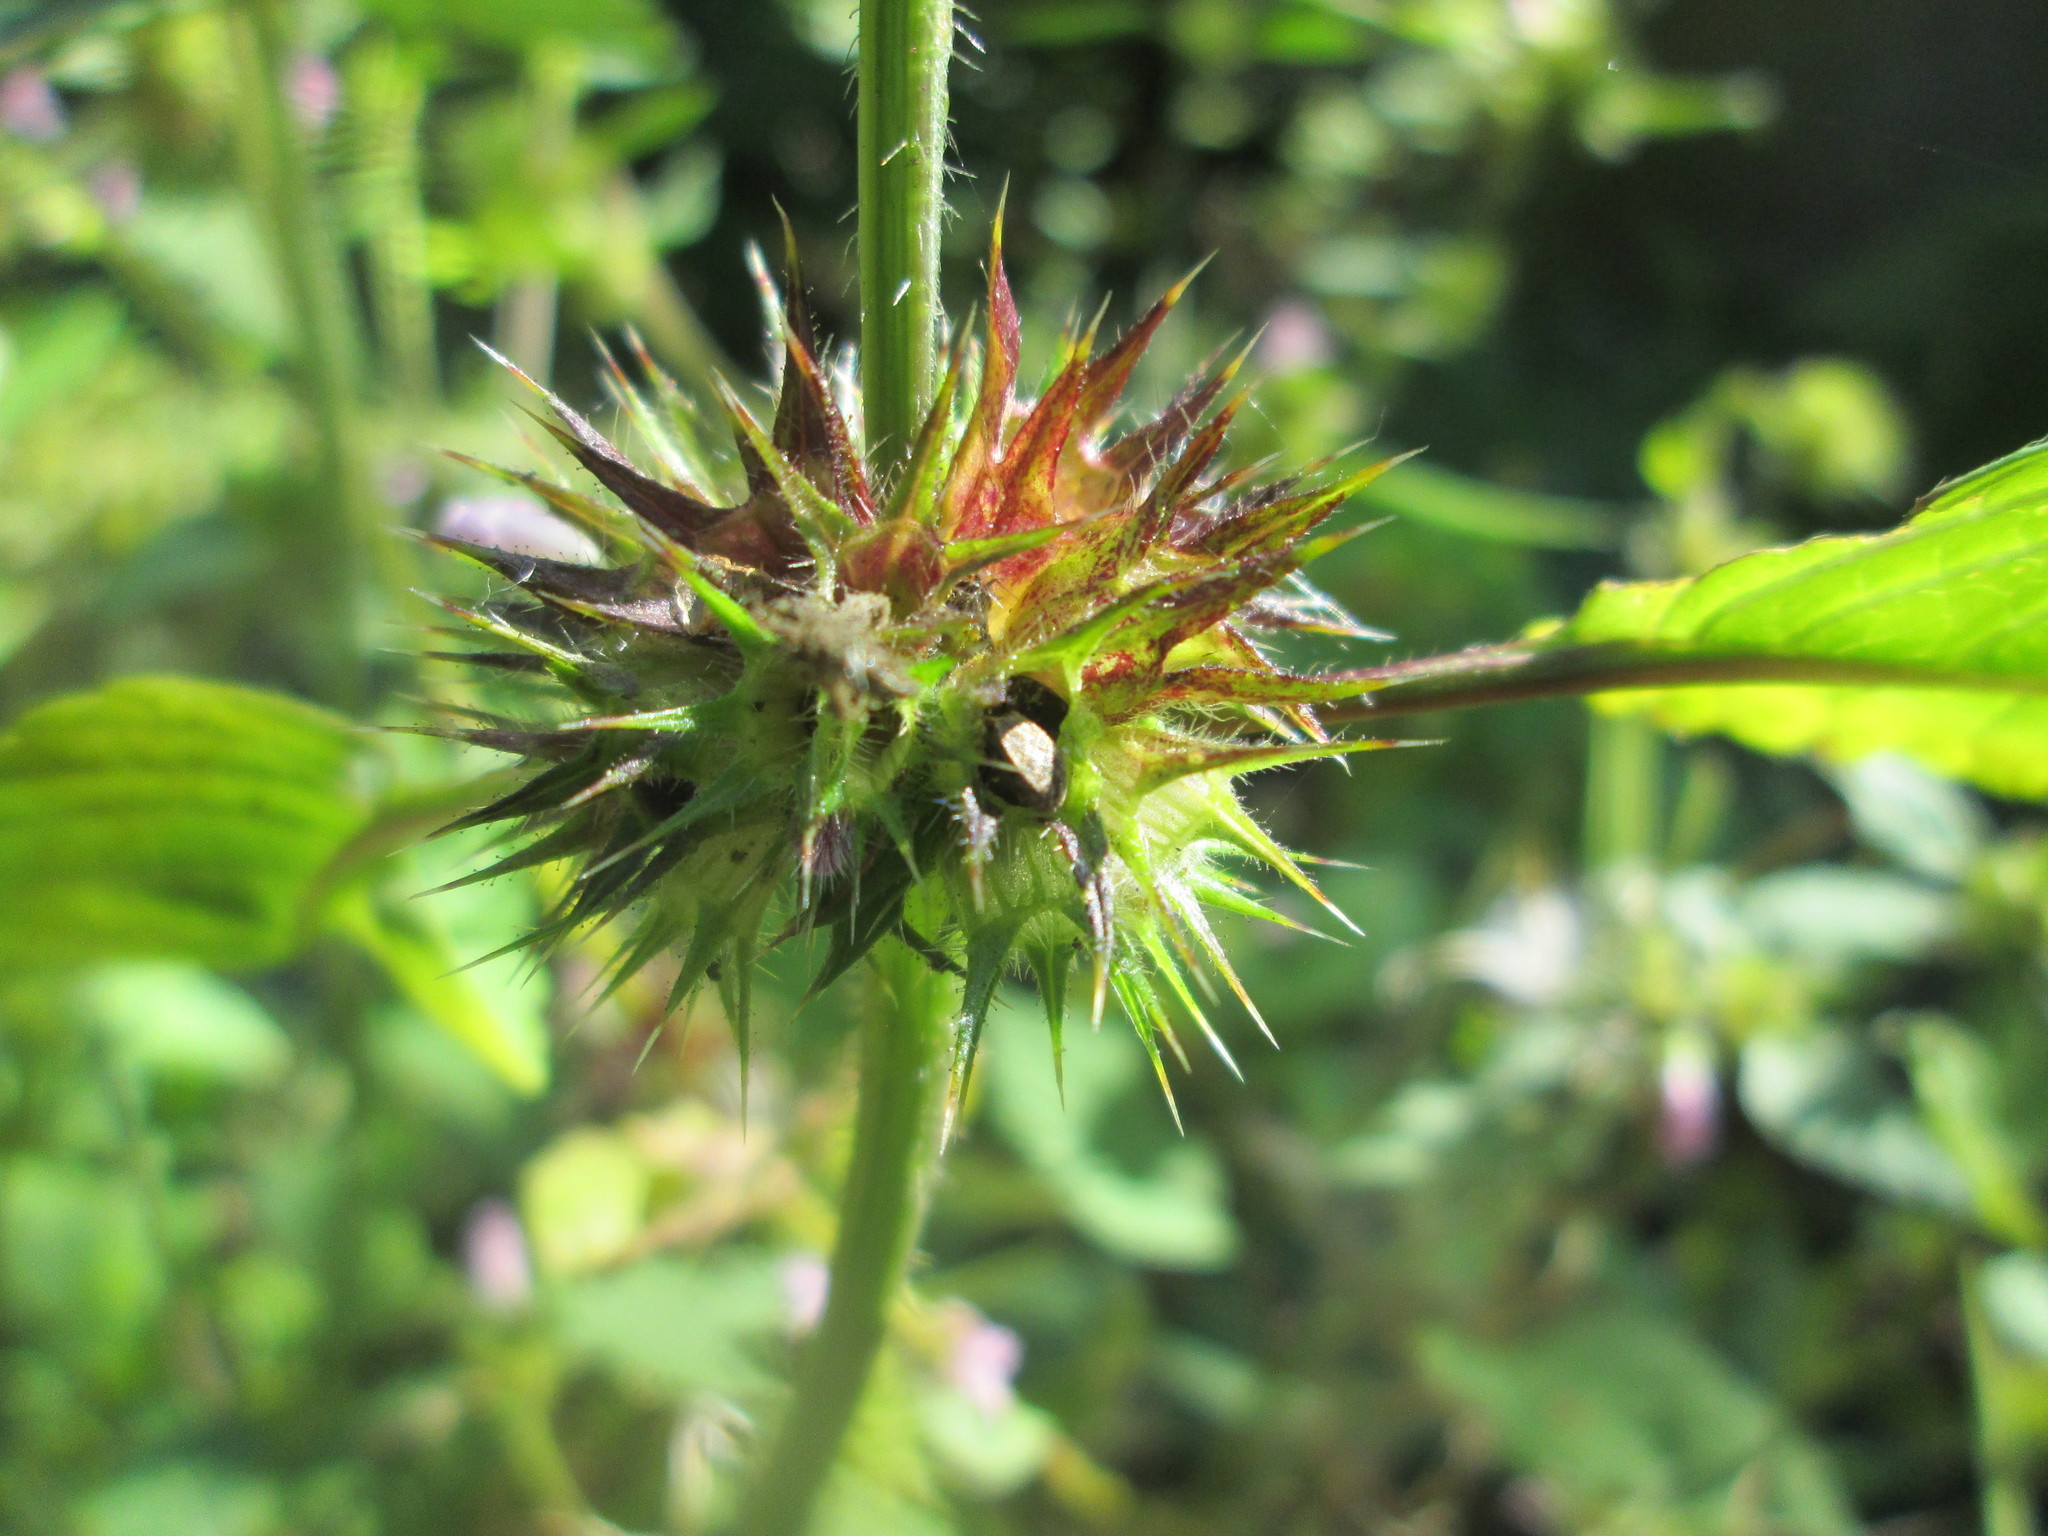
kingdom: Plantae
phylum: Tracheophyta
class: Magnoliopsida
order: Lamiales
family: Lamiaceae
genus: Galeopsis
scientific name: Galeopsis tetrahit
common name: Common hemp-nettle
